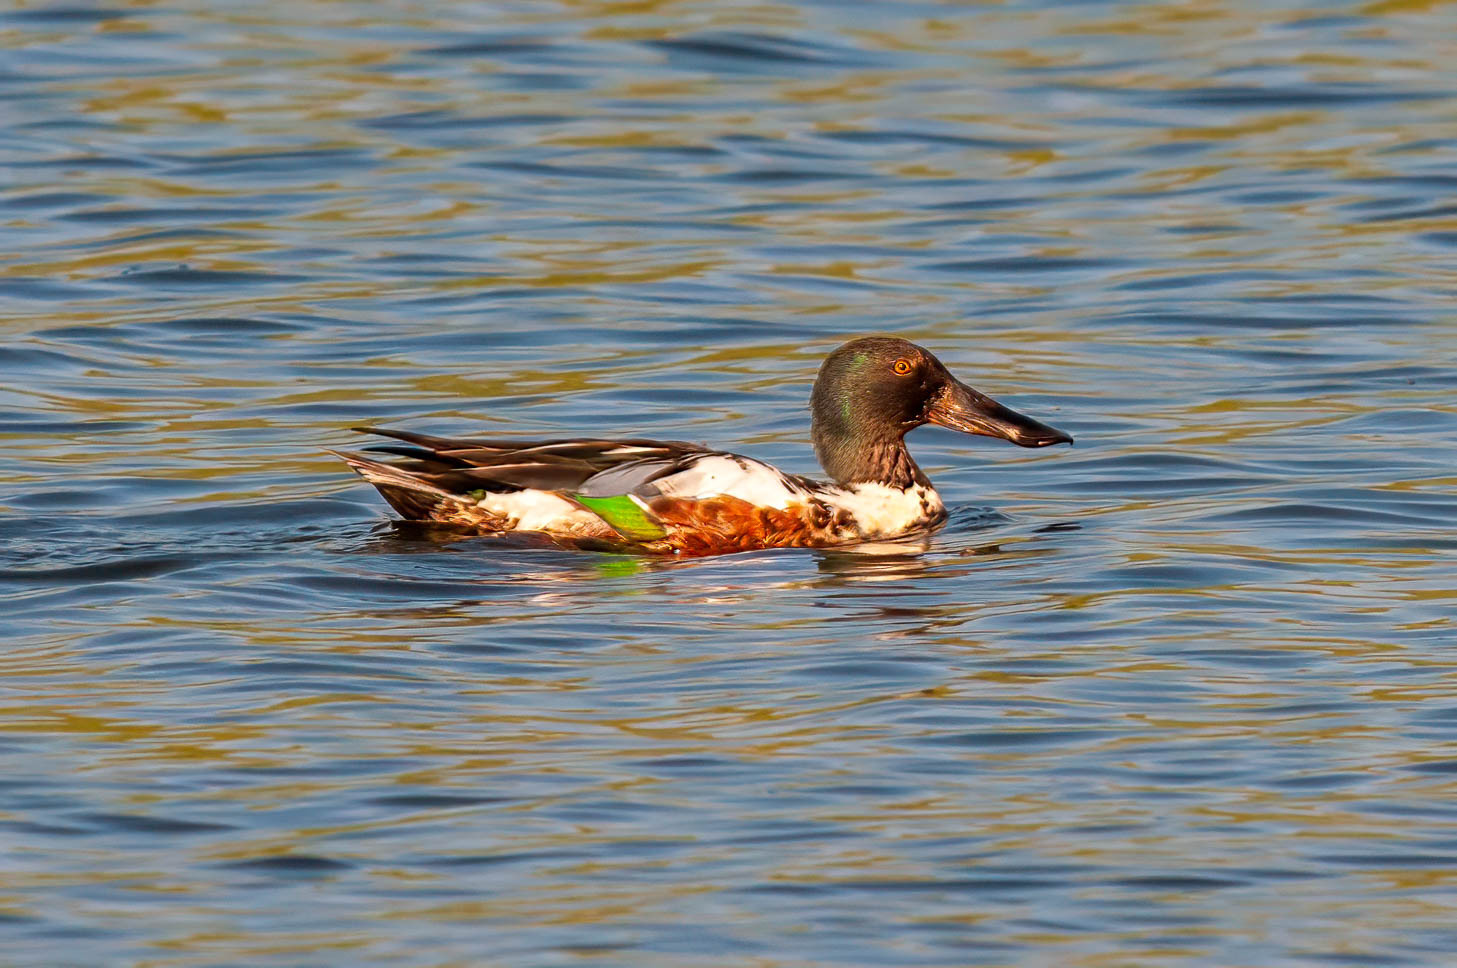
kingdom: Animalia
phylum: Chordata
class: Aves
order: Anseriformes
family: Anatidae
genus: Spatula
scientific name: Spatula clypeata
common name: Northern shoveler
